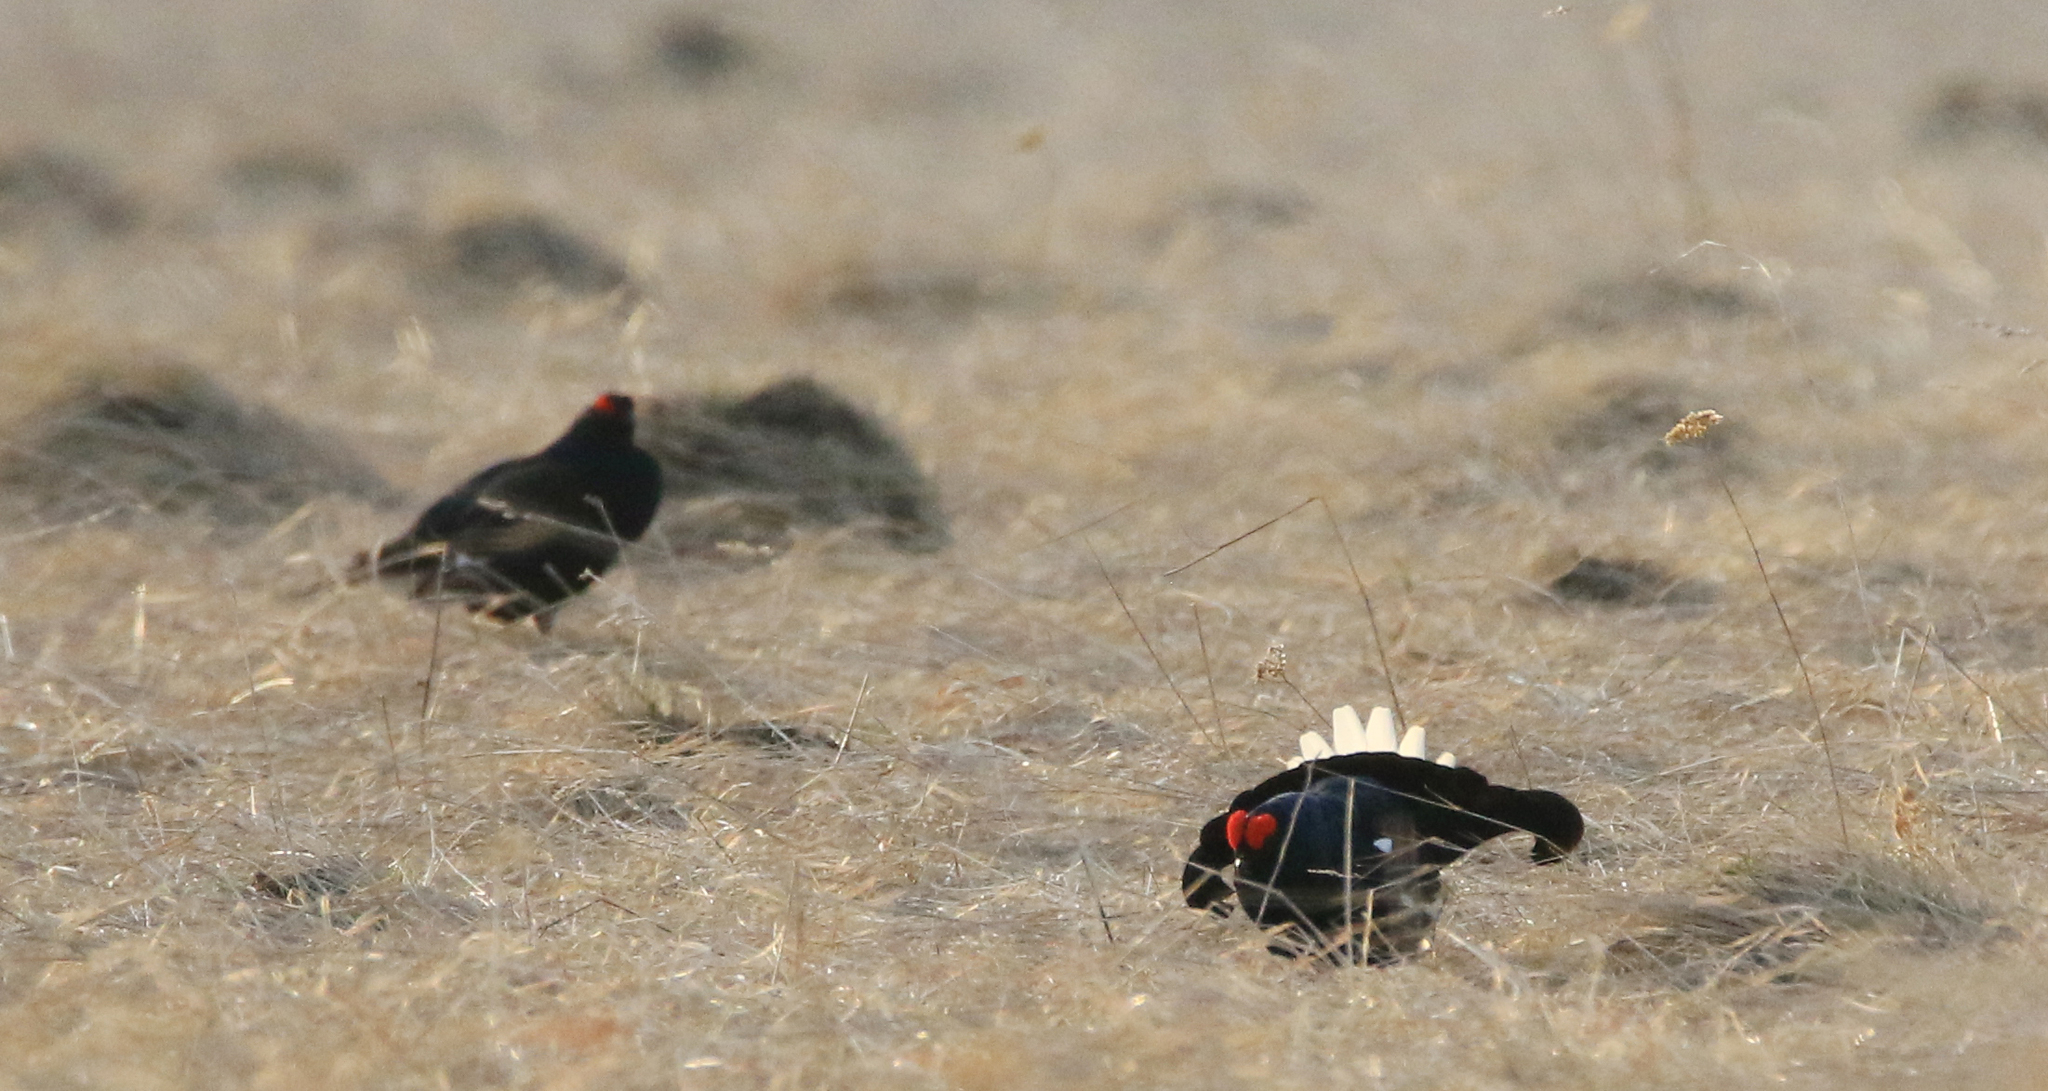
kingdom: Animalia
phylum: Chordata
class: Aves
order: Galliformes
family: Phasianidae
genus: Lyrurus
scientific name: Lyrurus tetrix
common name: Black grouse
